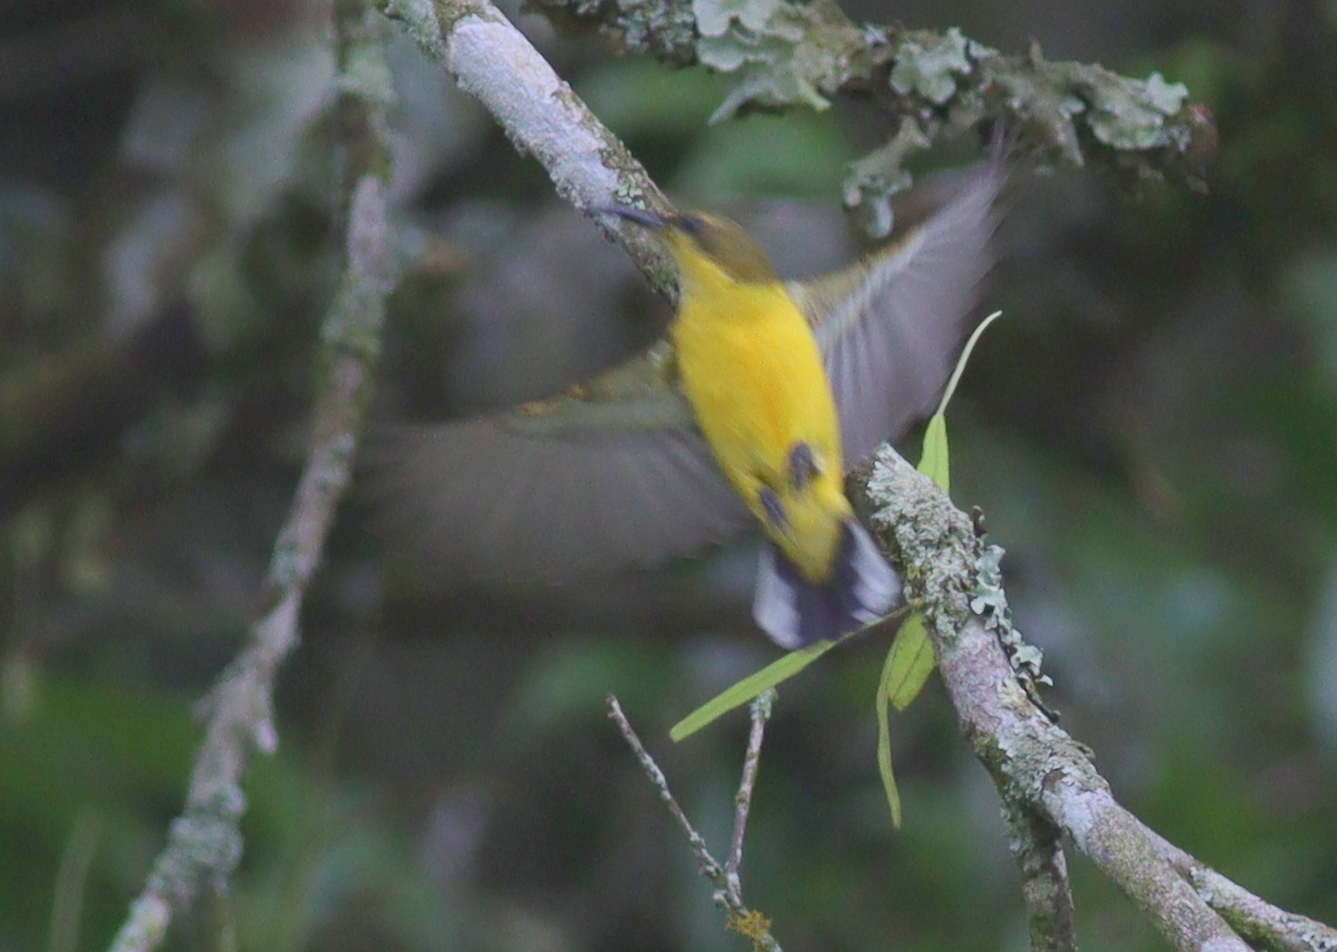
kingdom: Animalia
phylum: Chordata
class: Aves
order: Passeriformes
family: Nectariniidae
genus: Cinnyris
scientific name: Cinnyris
